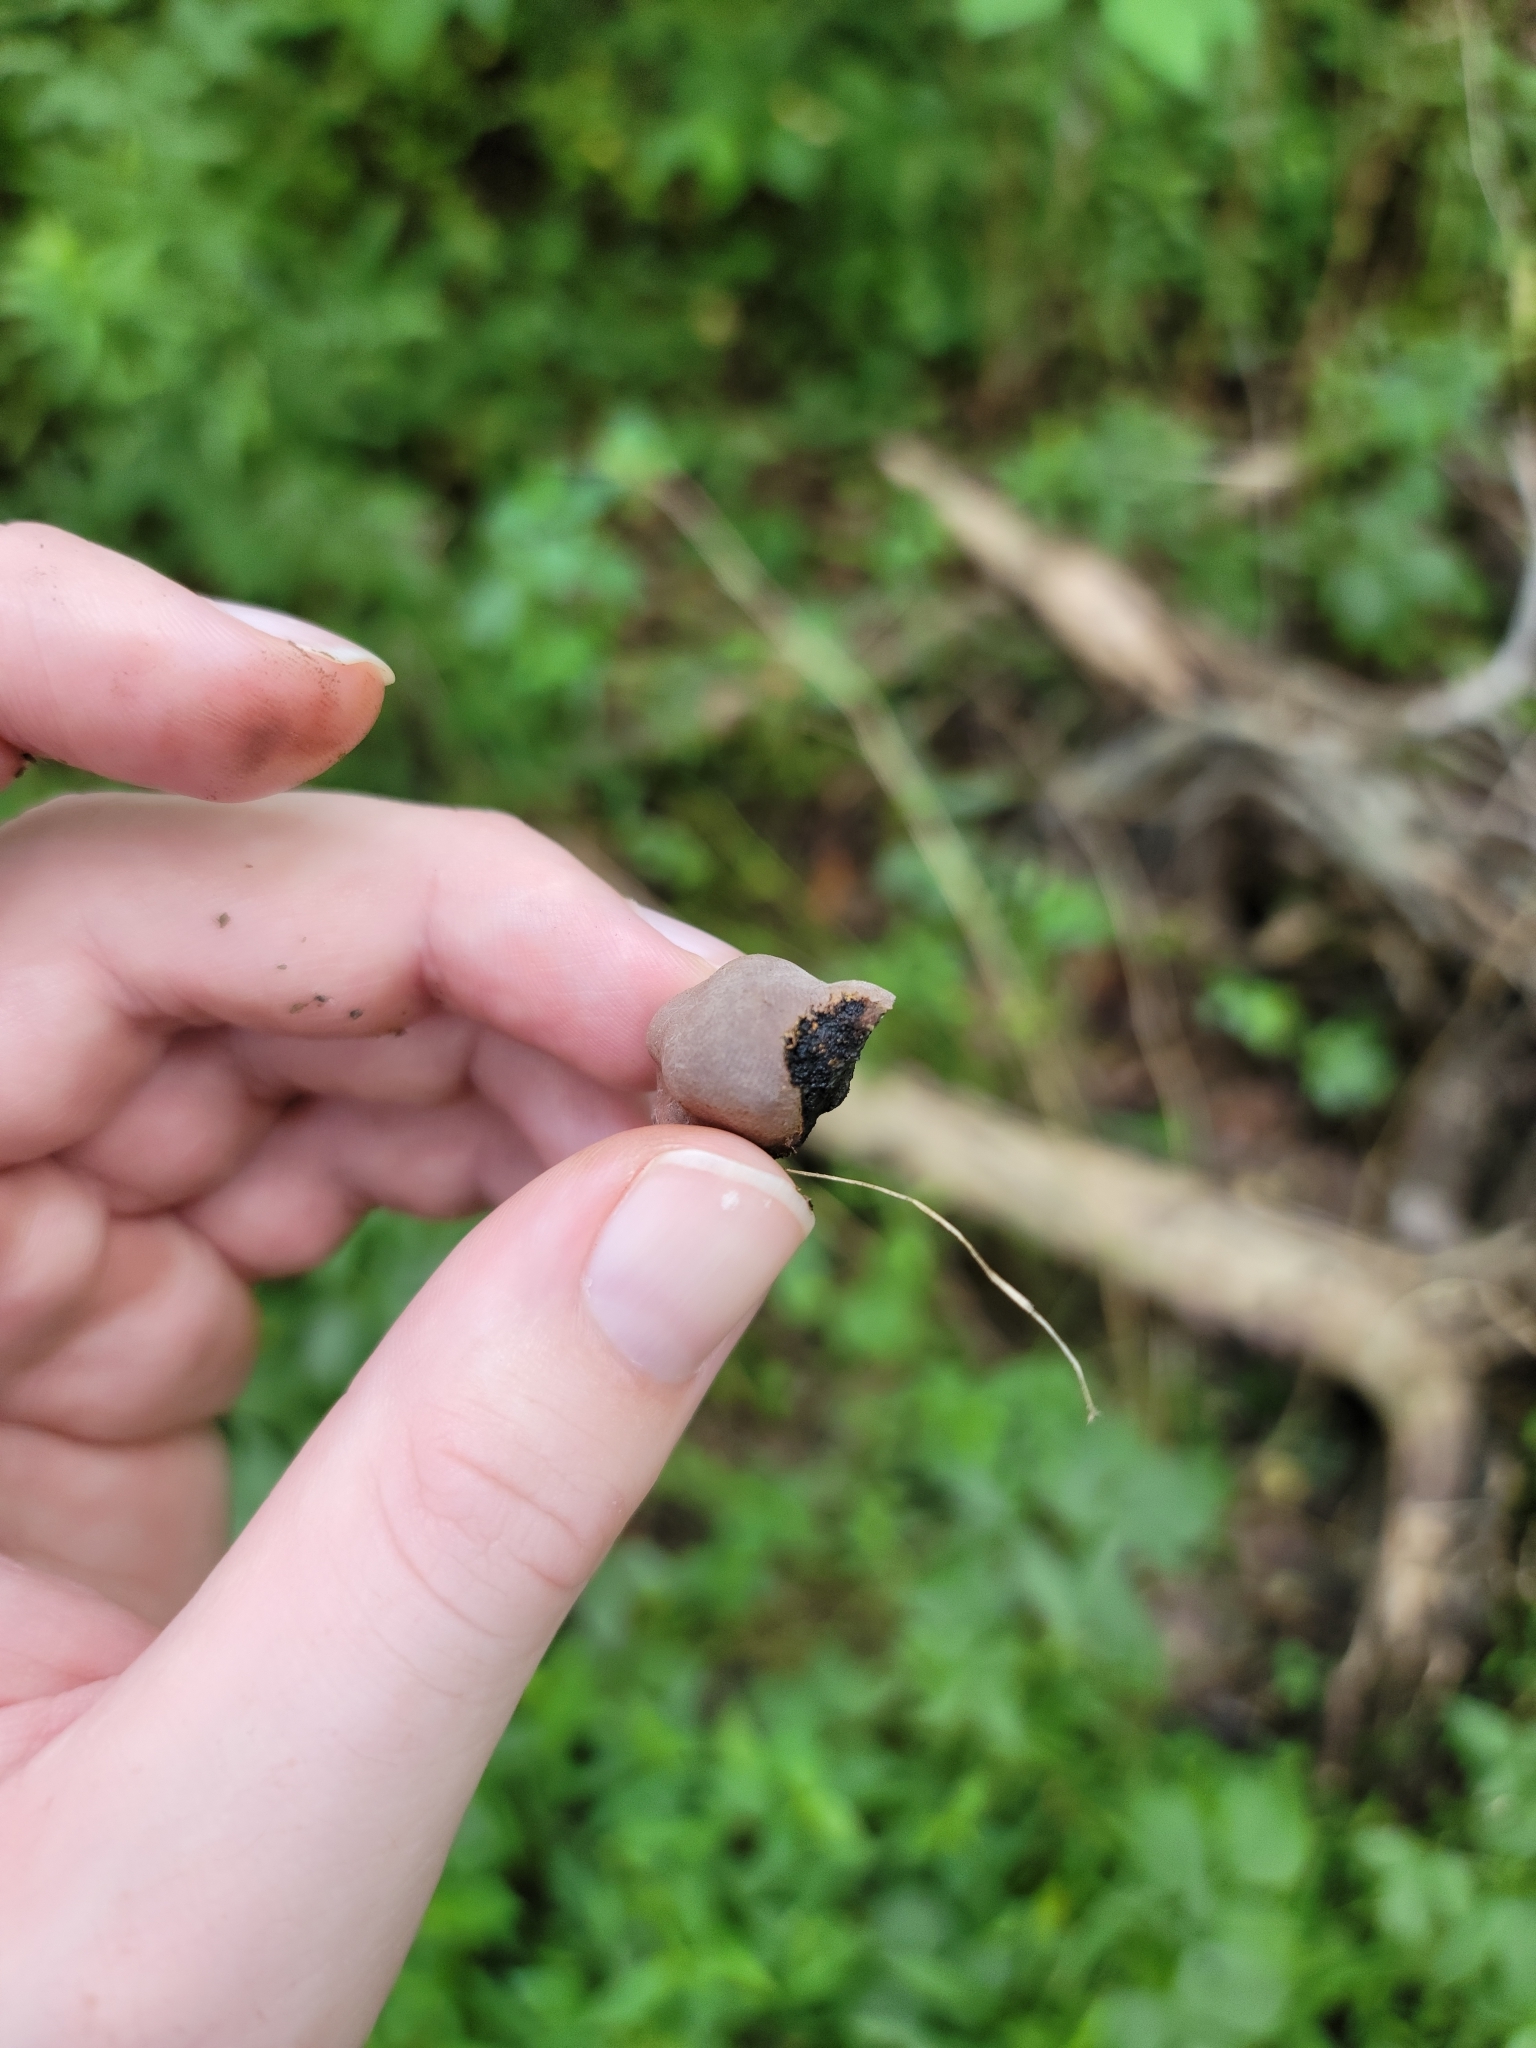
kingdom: Fungi
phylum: Ascomycota
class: Sordariomycetes
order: Xylariales
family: Hypoxylaceae
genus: Daldinia
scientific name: Daldinia childiae
